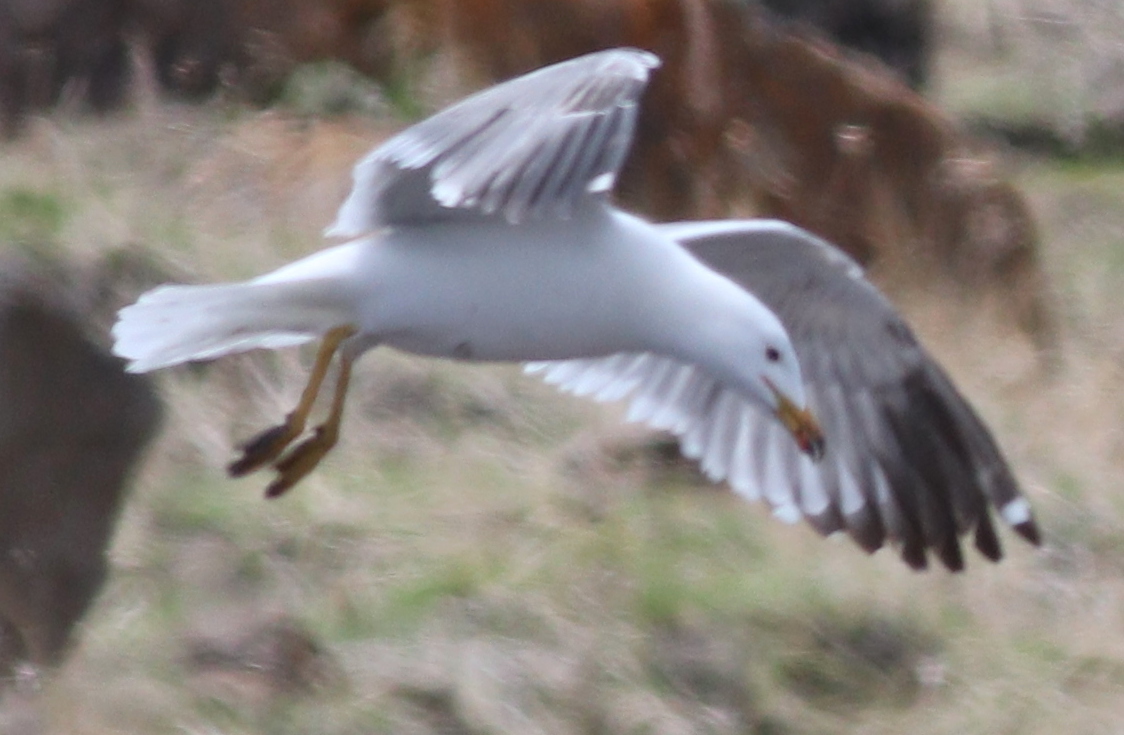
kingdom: Animalia
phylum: Chordata
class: Aves
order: Charadriiformes
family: Laridae
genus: Larus
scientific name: Larus armenicus
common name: Armenian gull
